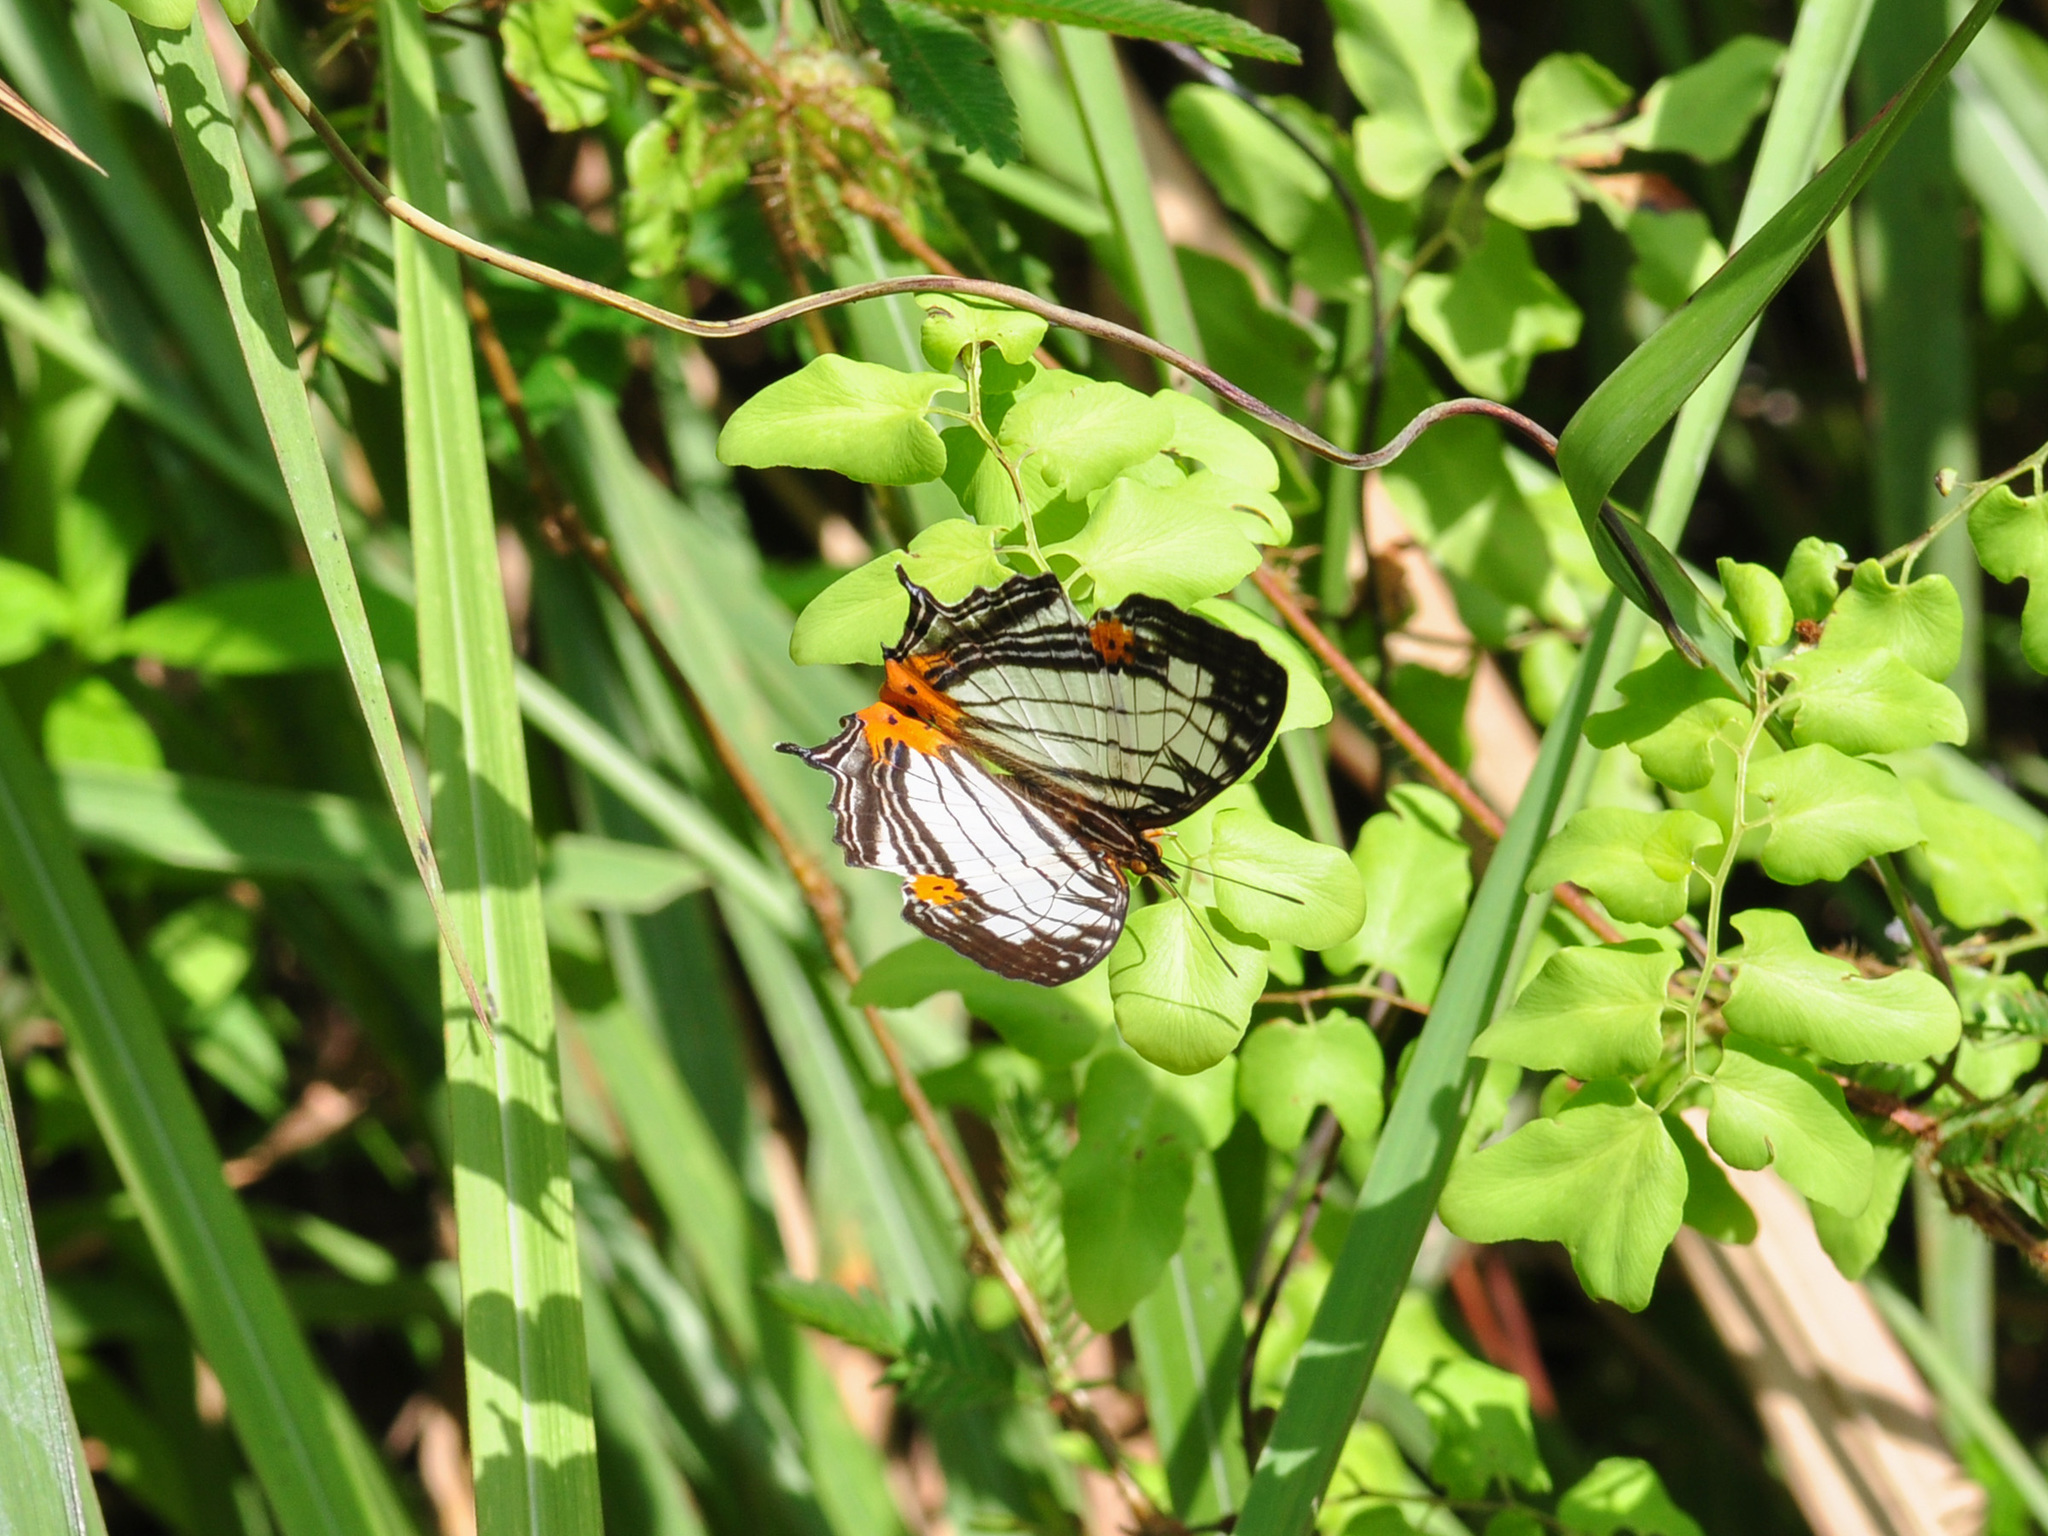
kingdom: Animalia
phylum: Arthropoda
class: Insecta
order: Lepidoptera
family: Nymphalidae
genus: Cyrestis
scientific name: Cyrestis maenalis
